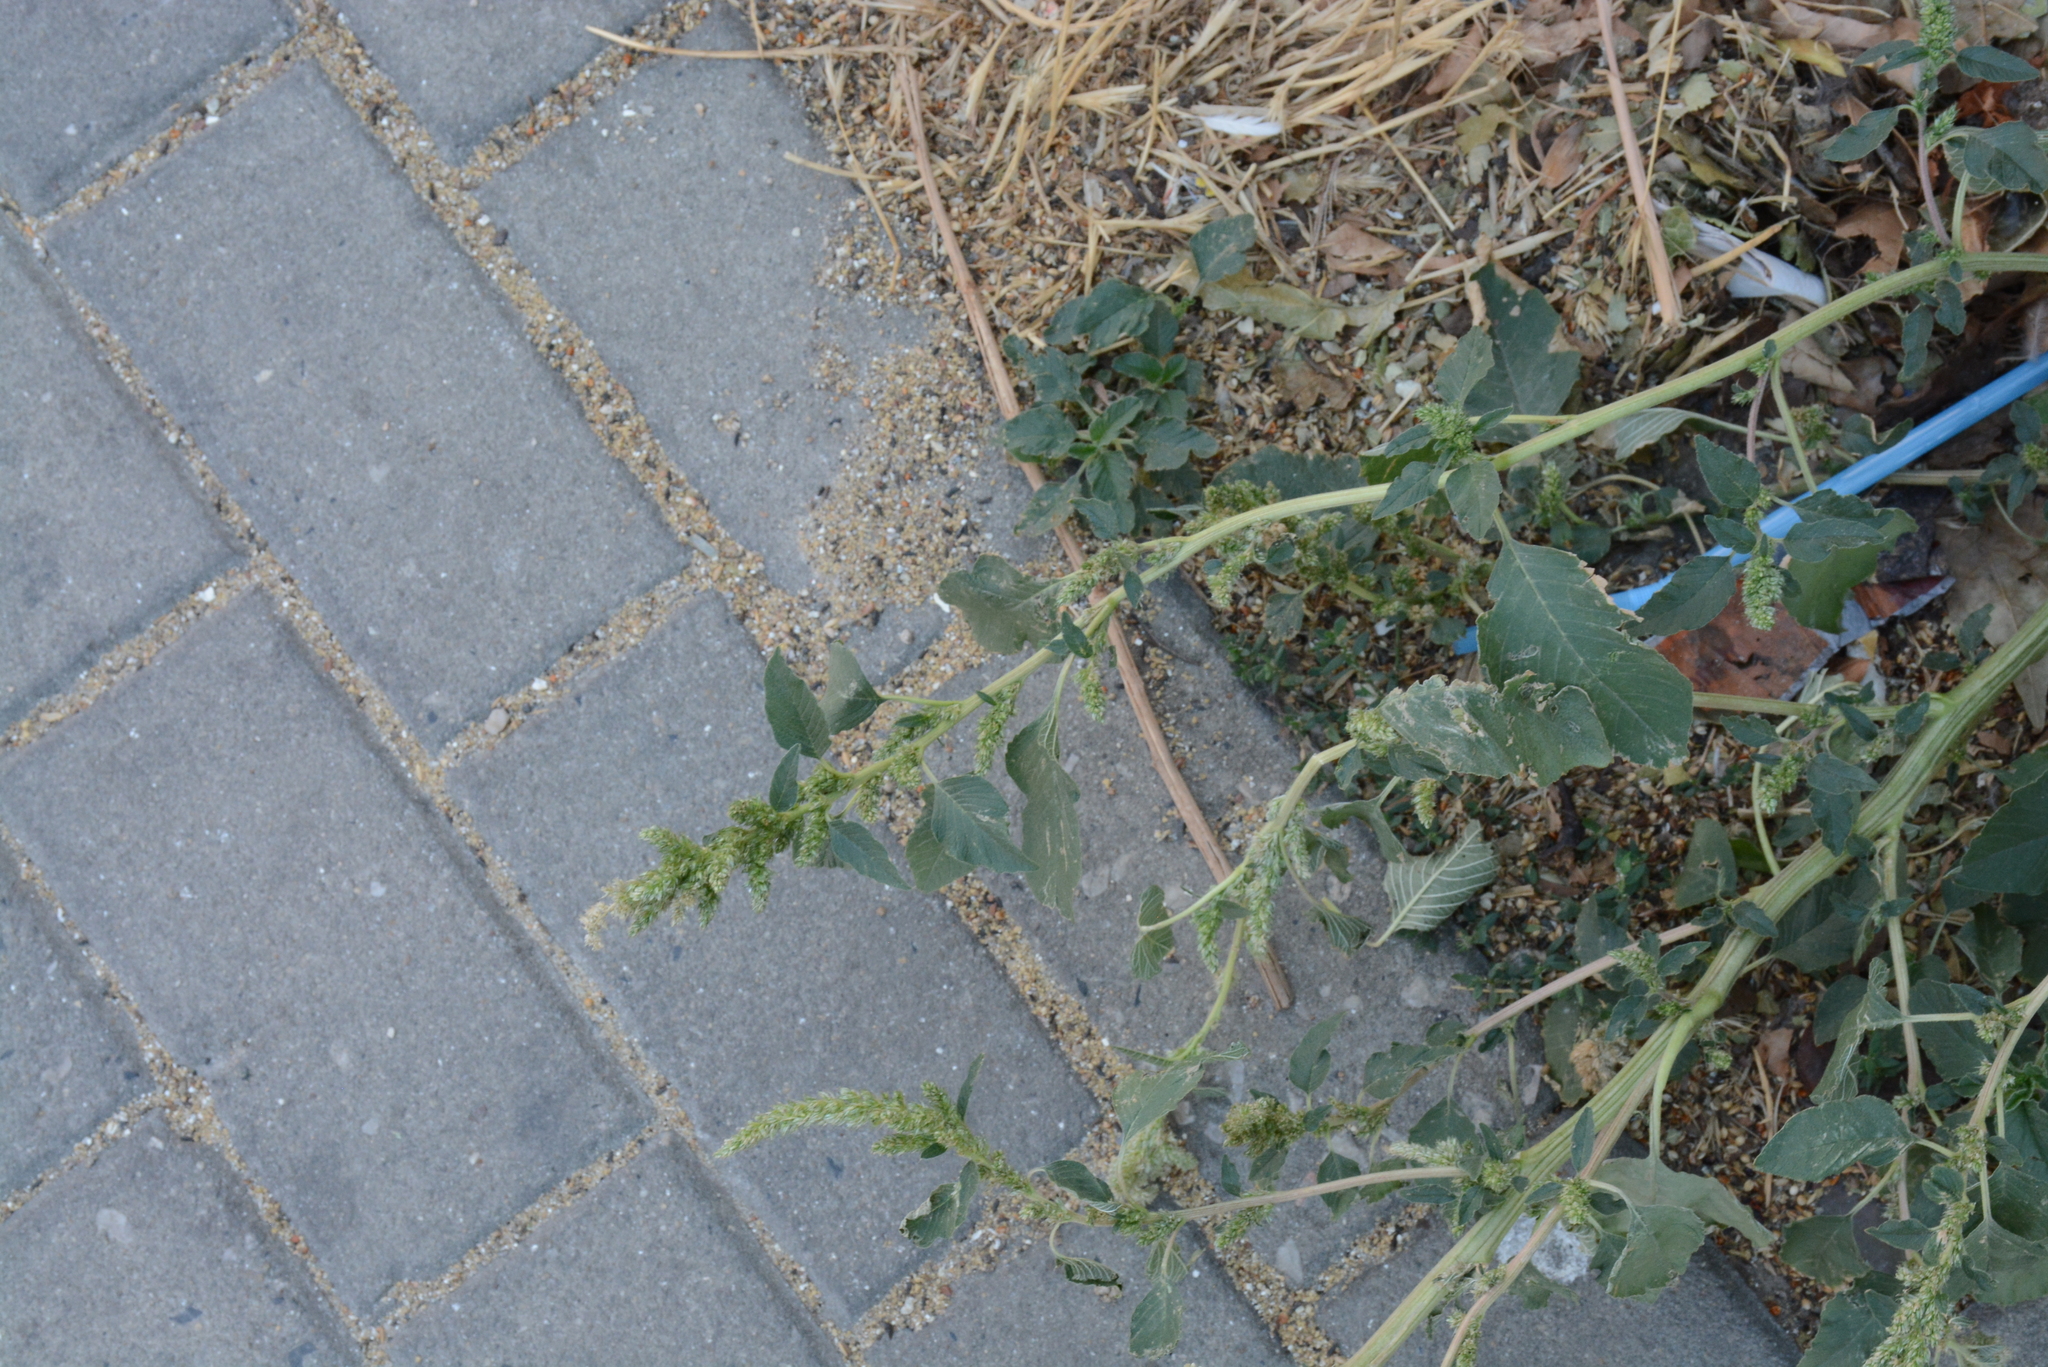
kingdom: Plantae
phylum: Tracheophyta
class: Magnoliopsida
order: Caryophyllales
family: Amaranthaceae
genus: Amaranthus
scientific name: Amaranthus retroflexus
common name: Redroot amaranth
